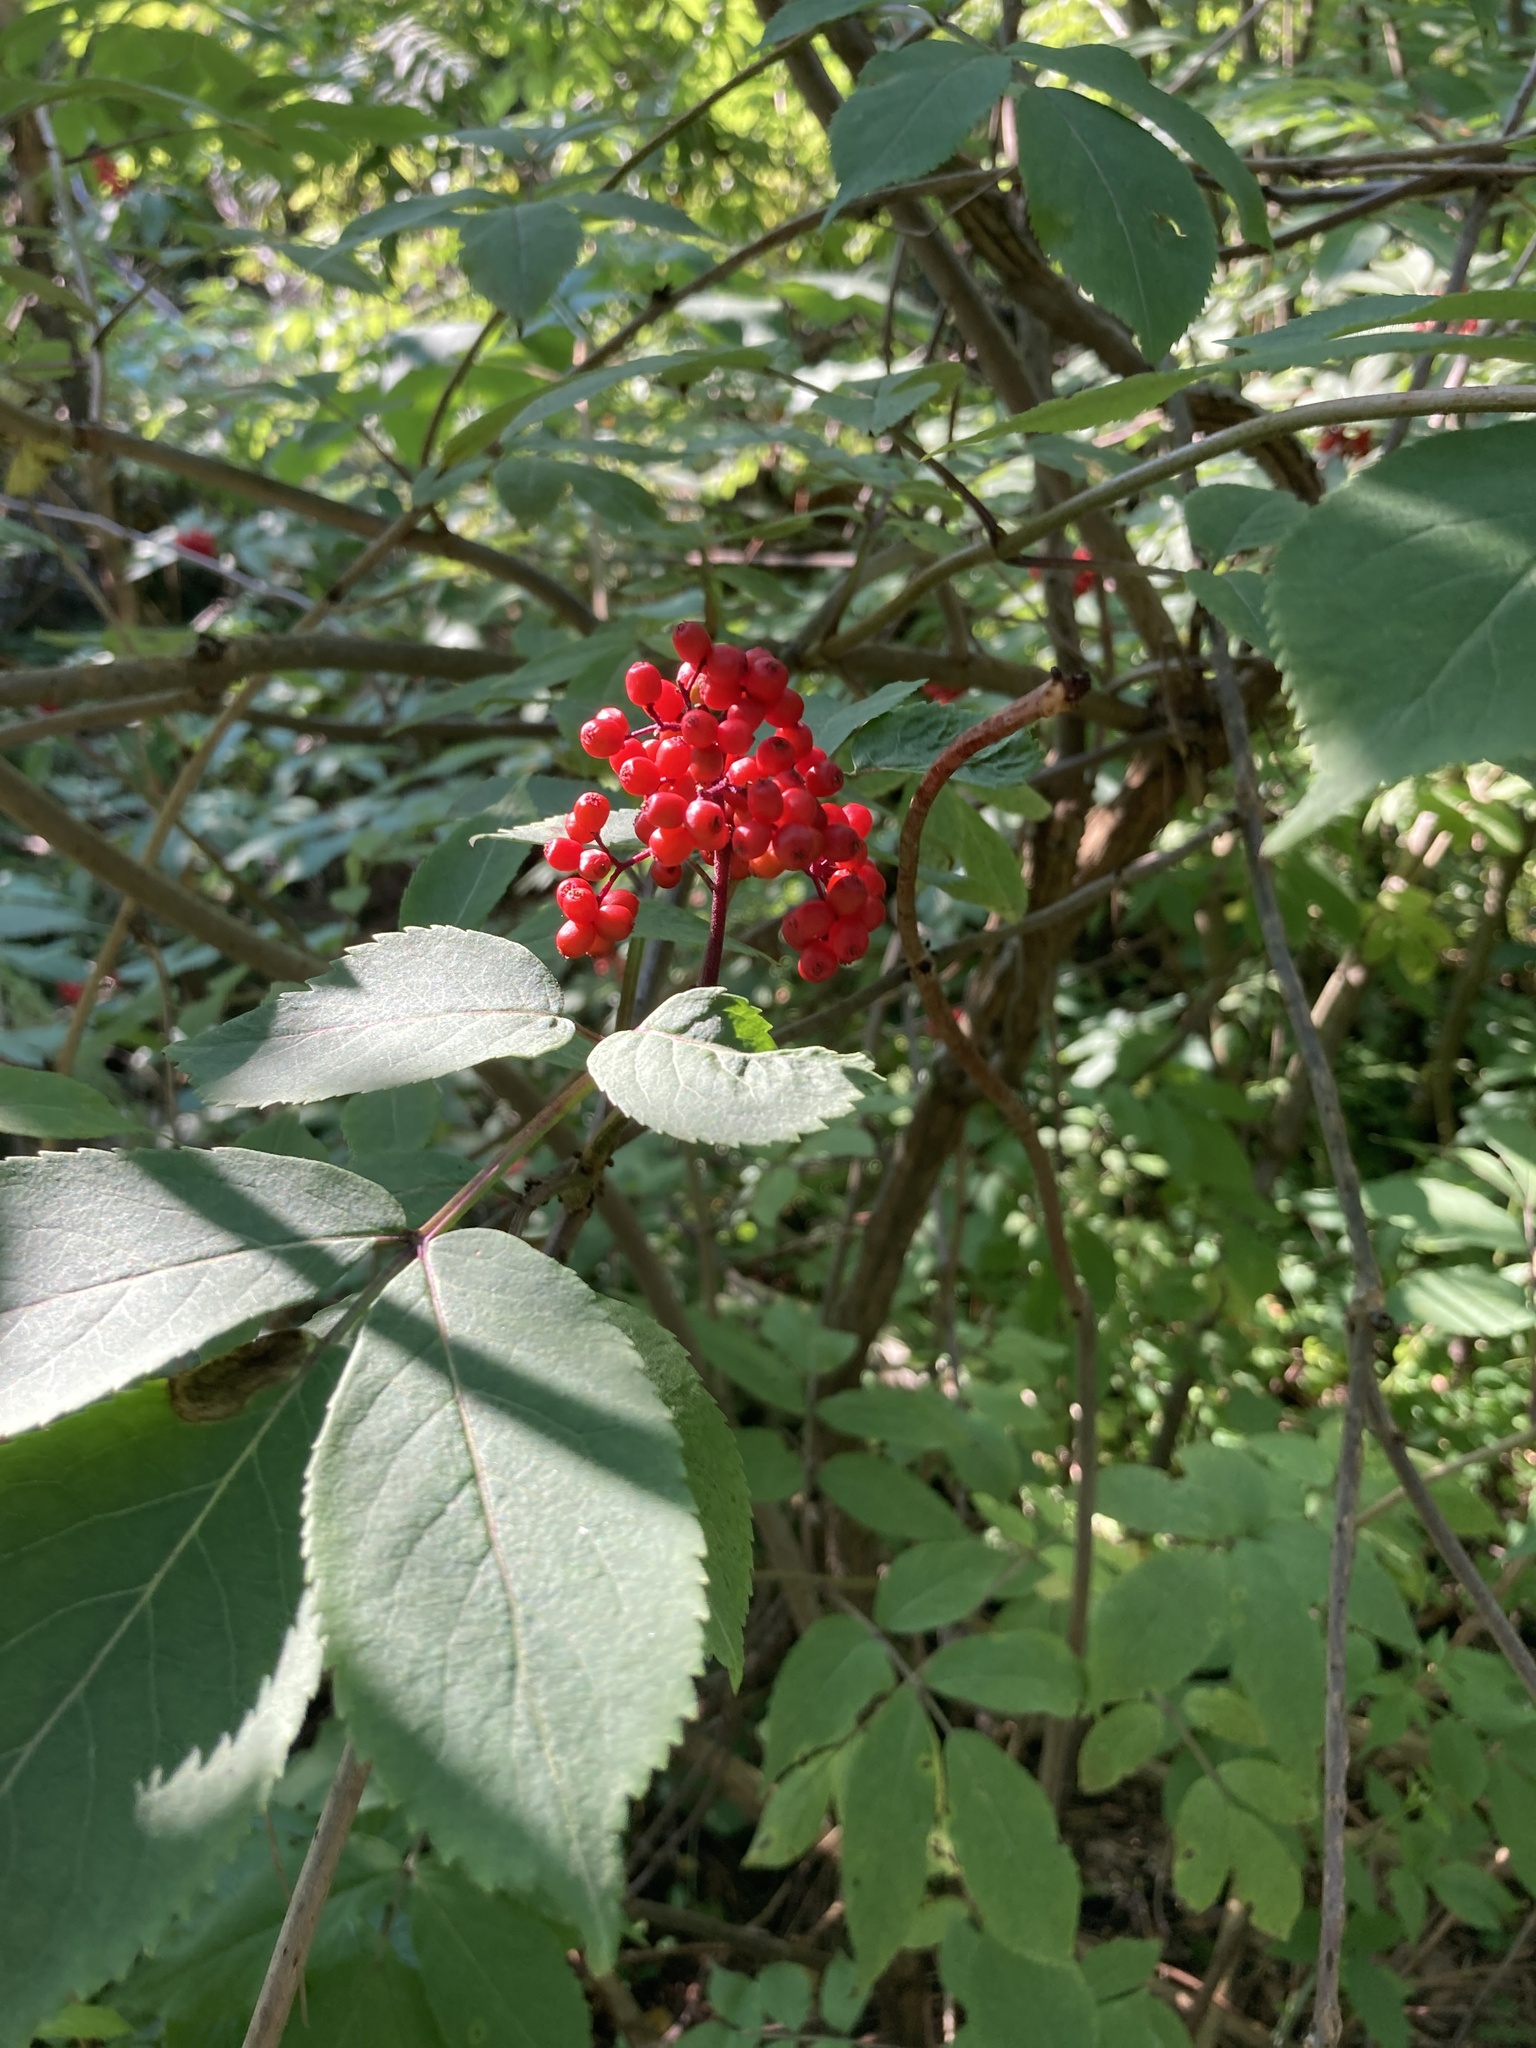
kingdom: Plantae
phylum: Tracheophyta
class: Magnoliopsida
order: Dipsacales
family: Viburnaceae
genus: Sambucus
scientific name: Sambucus racemosa
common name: Red-berried elder
